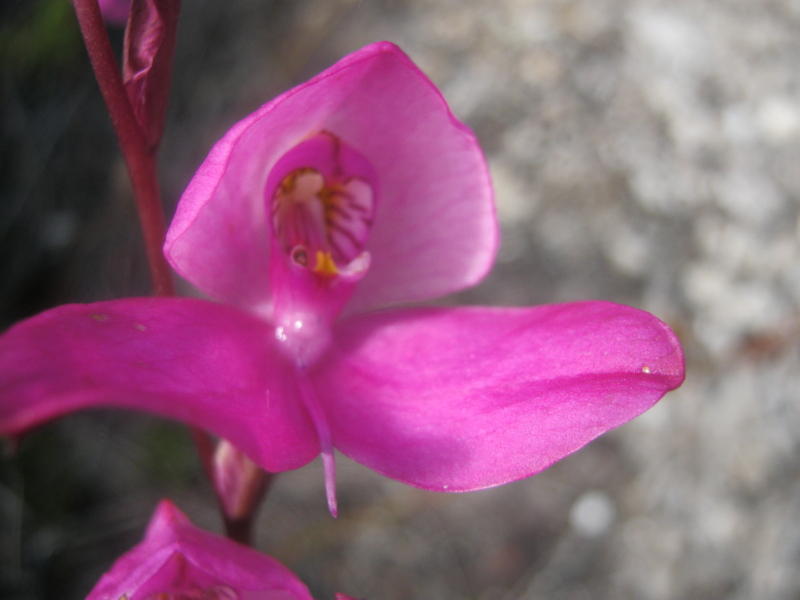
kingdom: Plantae
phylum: Tracheophyta
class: Liliopsida
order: Asparagales
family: Orchidaceae
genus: Disa
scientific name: Disa racemosa
